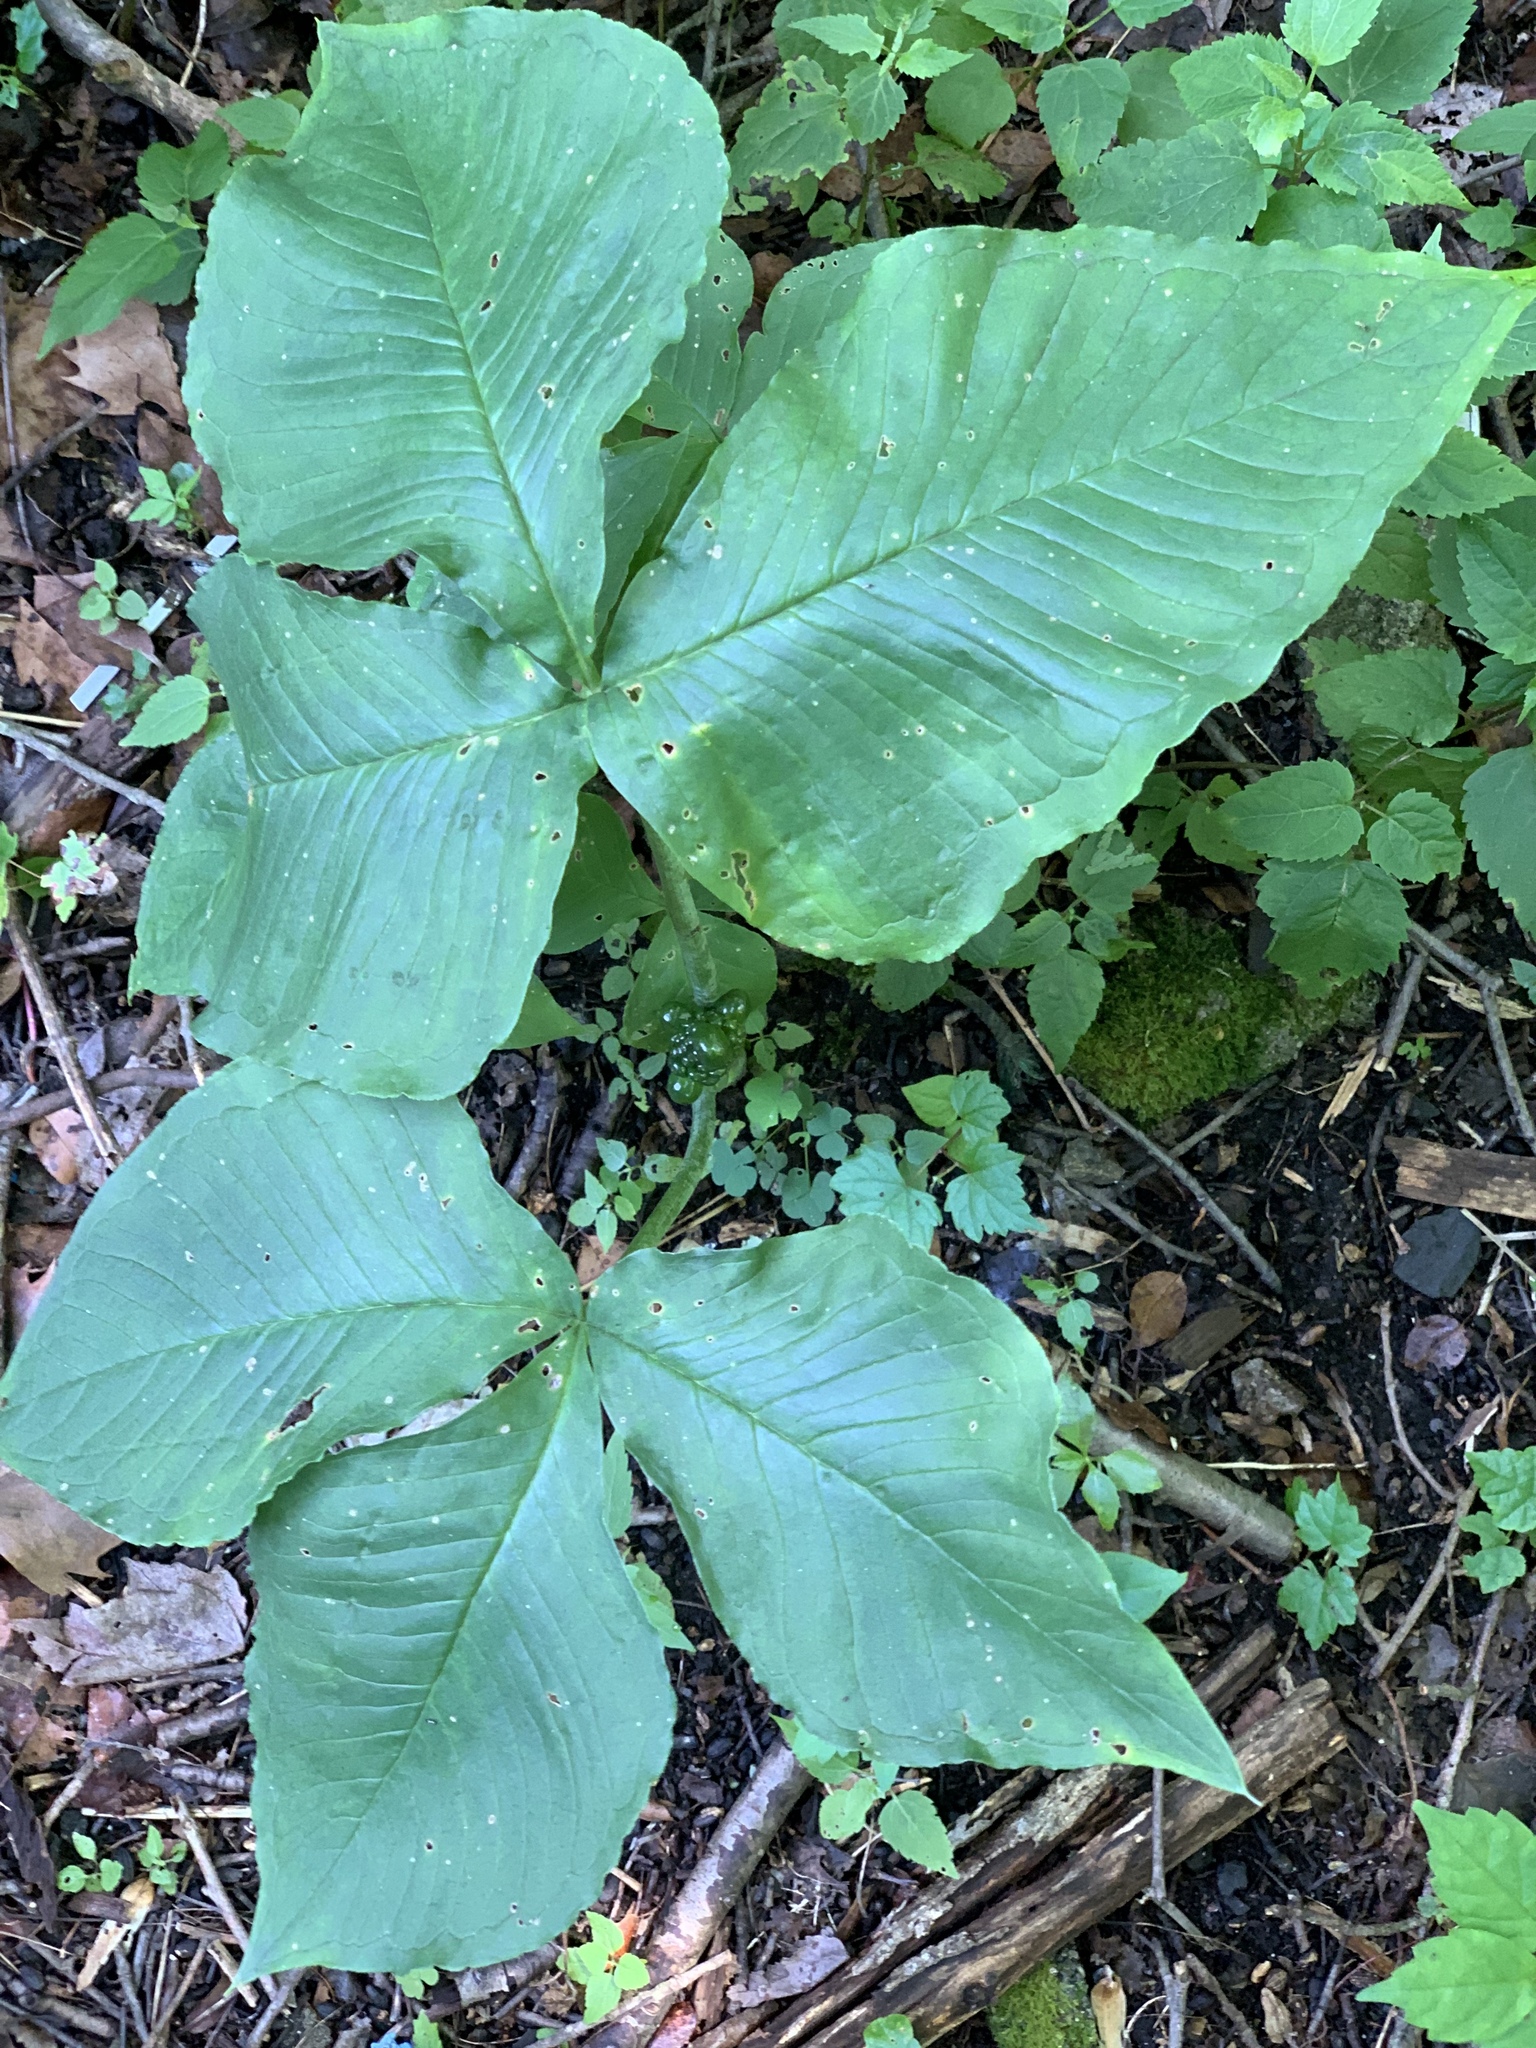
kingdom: Plantae
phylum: Tracheophyta
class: Liliopsida
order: Alismatales
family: Araceae
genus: Arisaema
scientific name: Arisaema triphyllum
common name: Jack-in-the-pulpit
